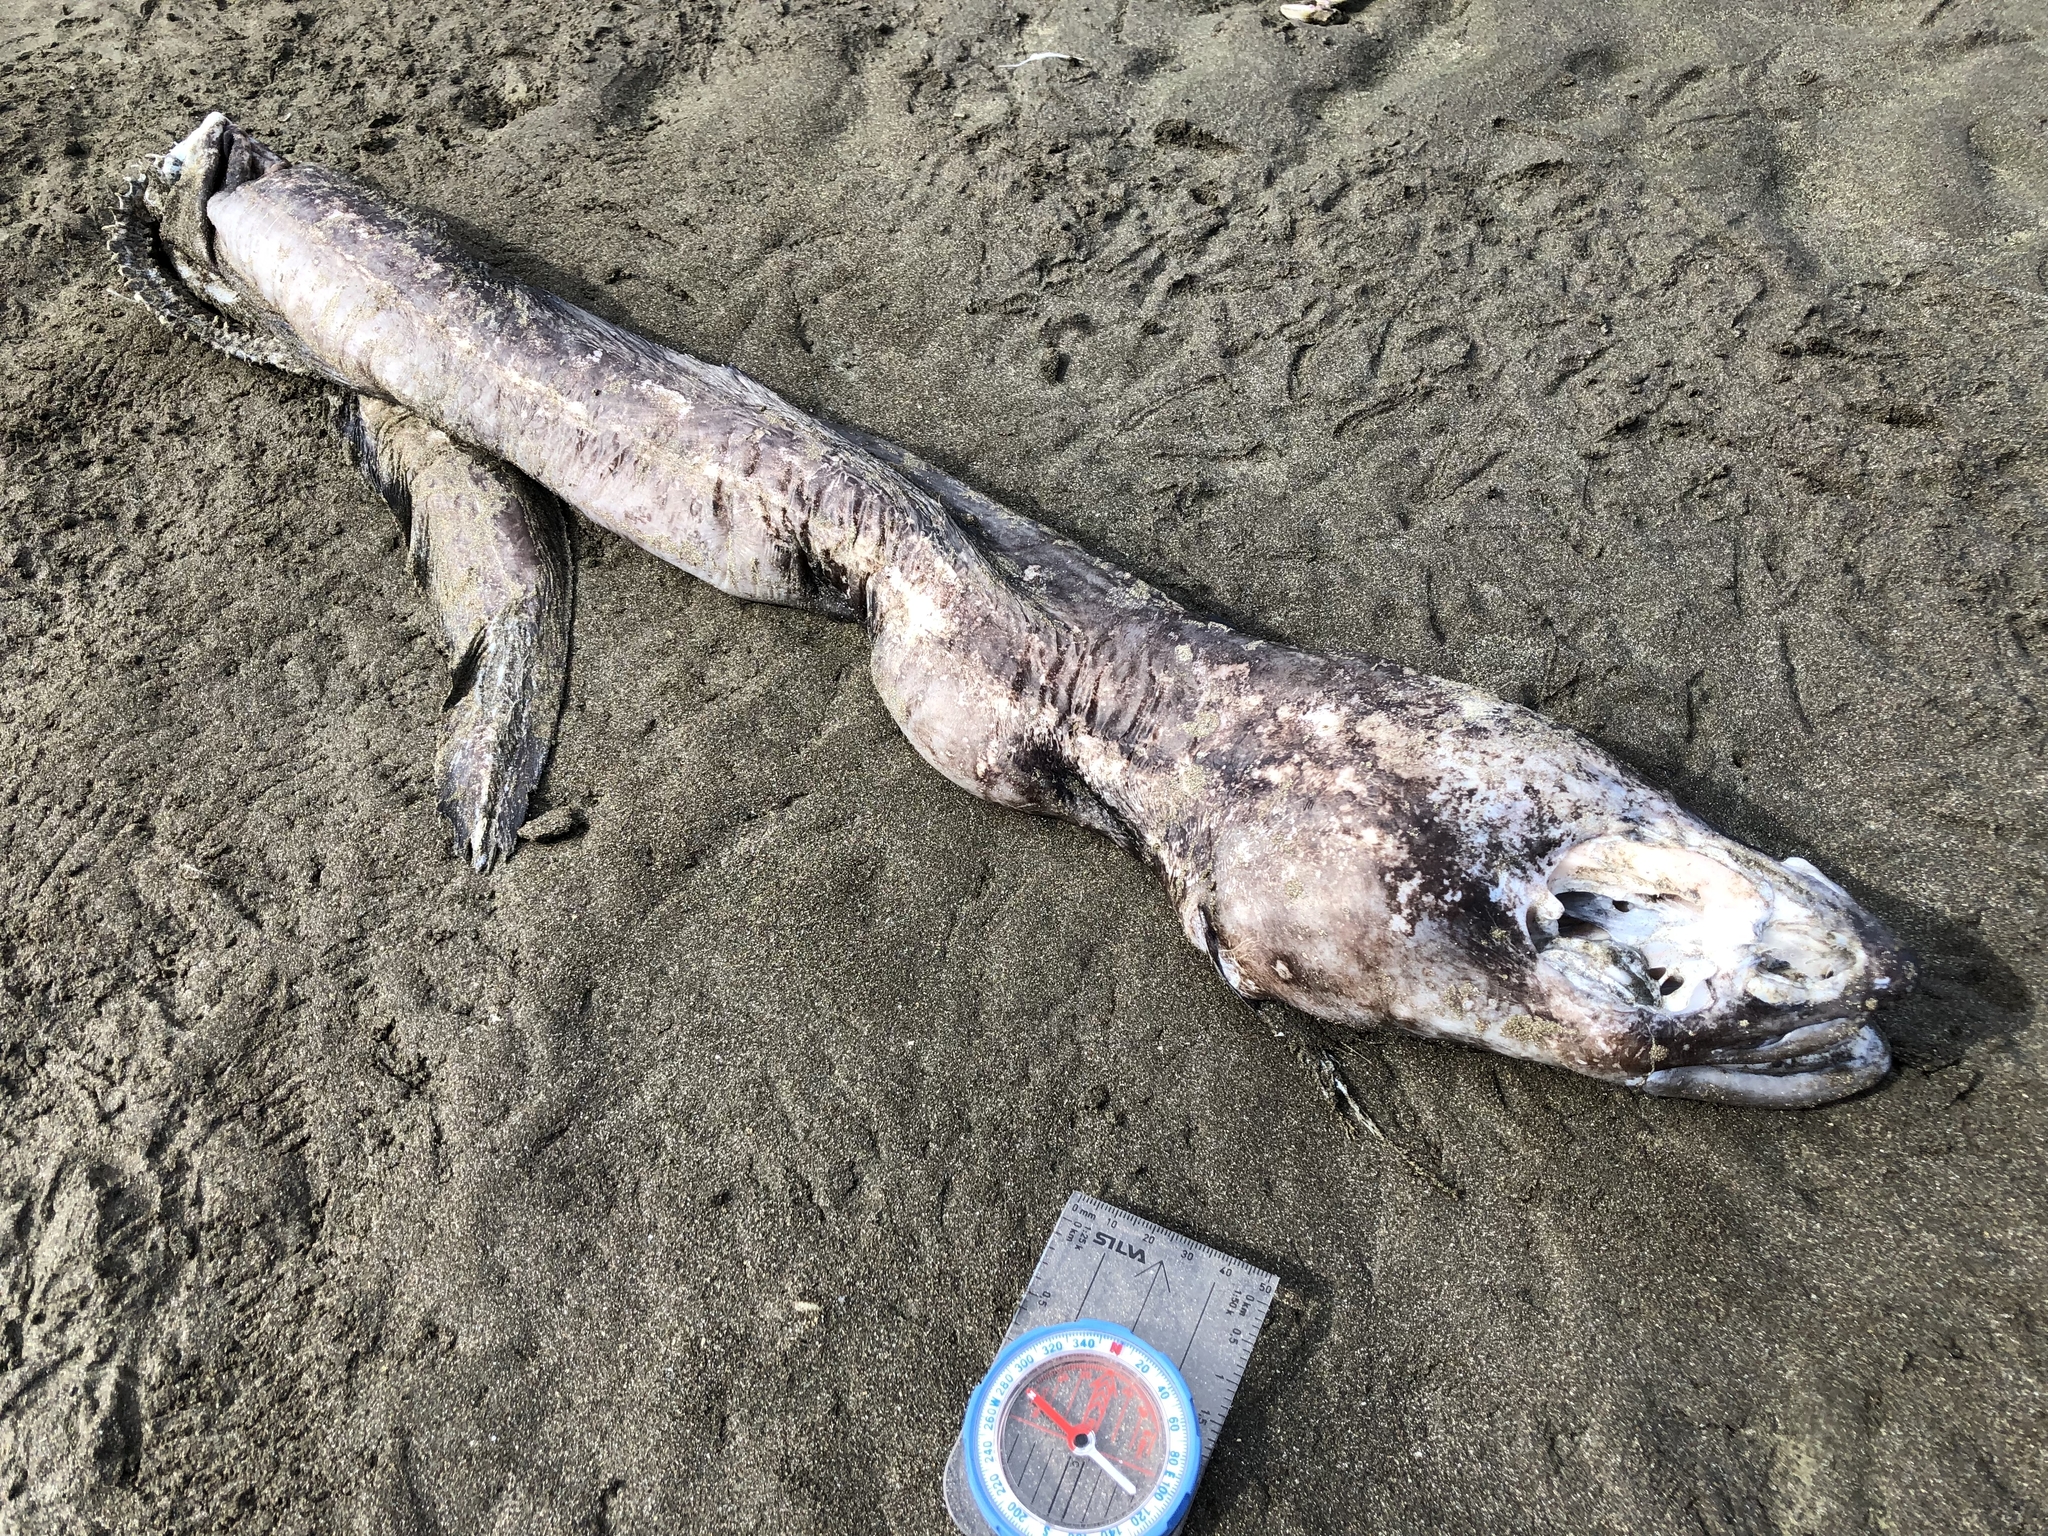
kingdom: Animalia
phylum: Chordata
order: Anguilliformes
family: Congridae
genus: Conger
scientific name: Conger verreauxi
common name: Conger eel
